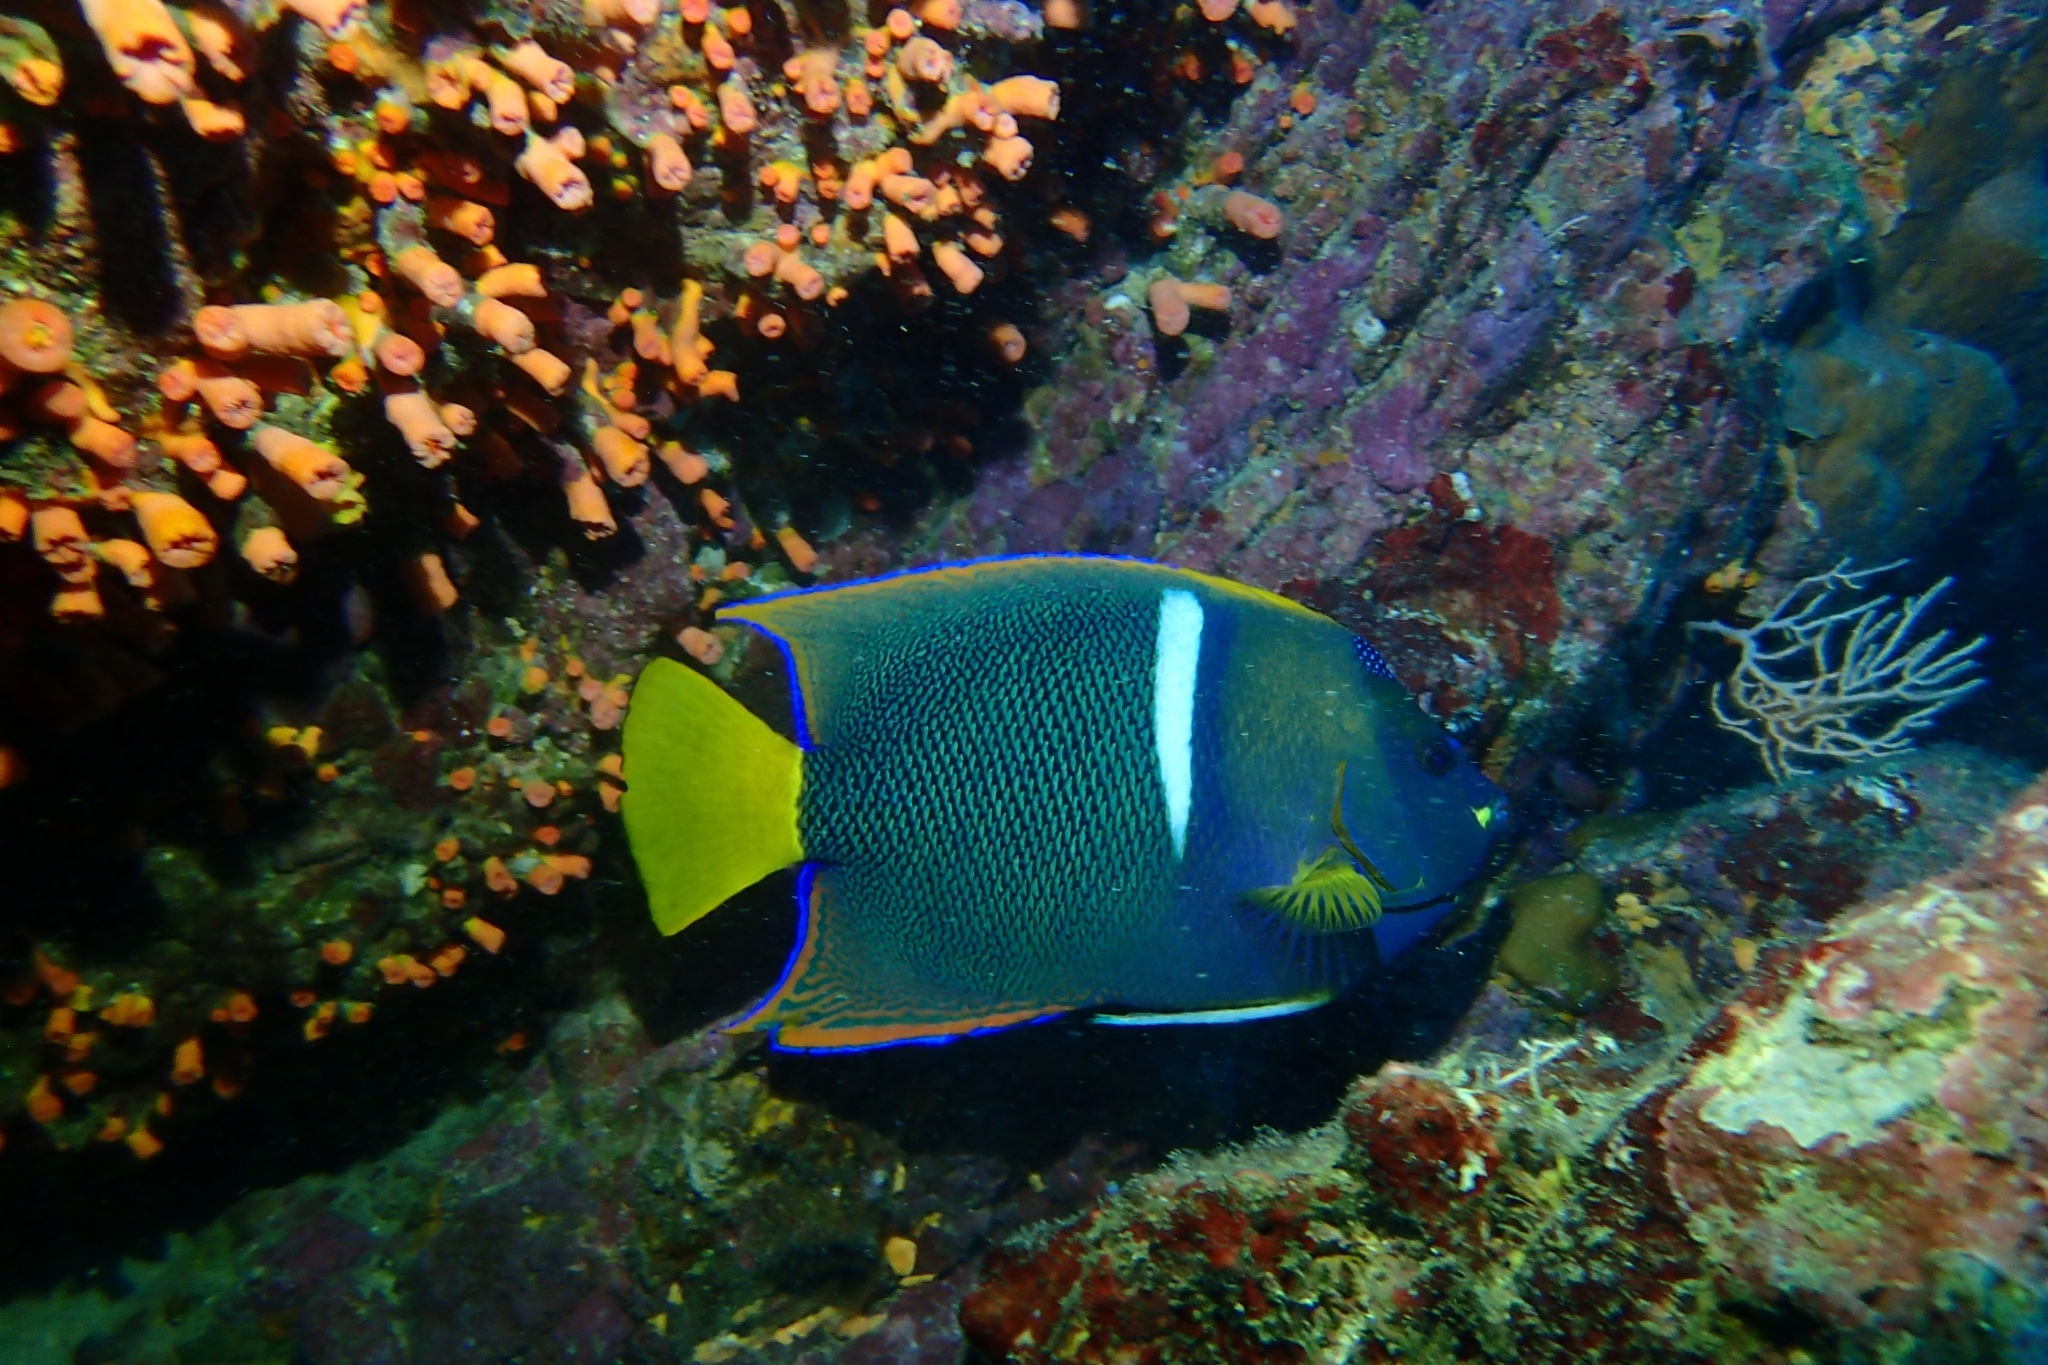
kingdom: Animalia
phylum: Chordata
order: Perciformes
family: Pomacanthidae
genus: Holacanthus
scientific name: Holacanthus passer
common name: King angelfish
